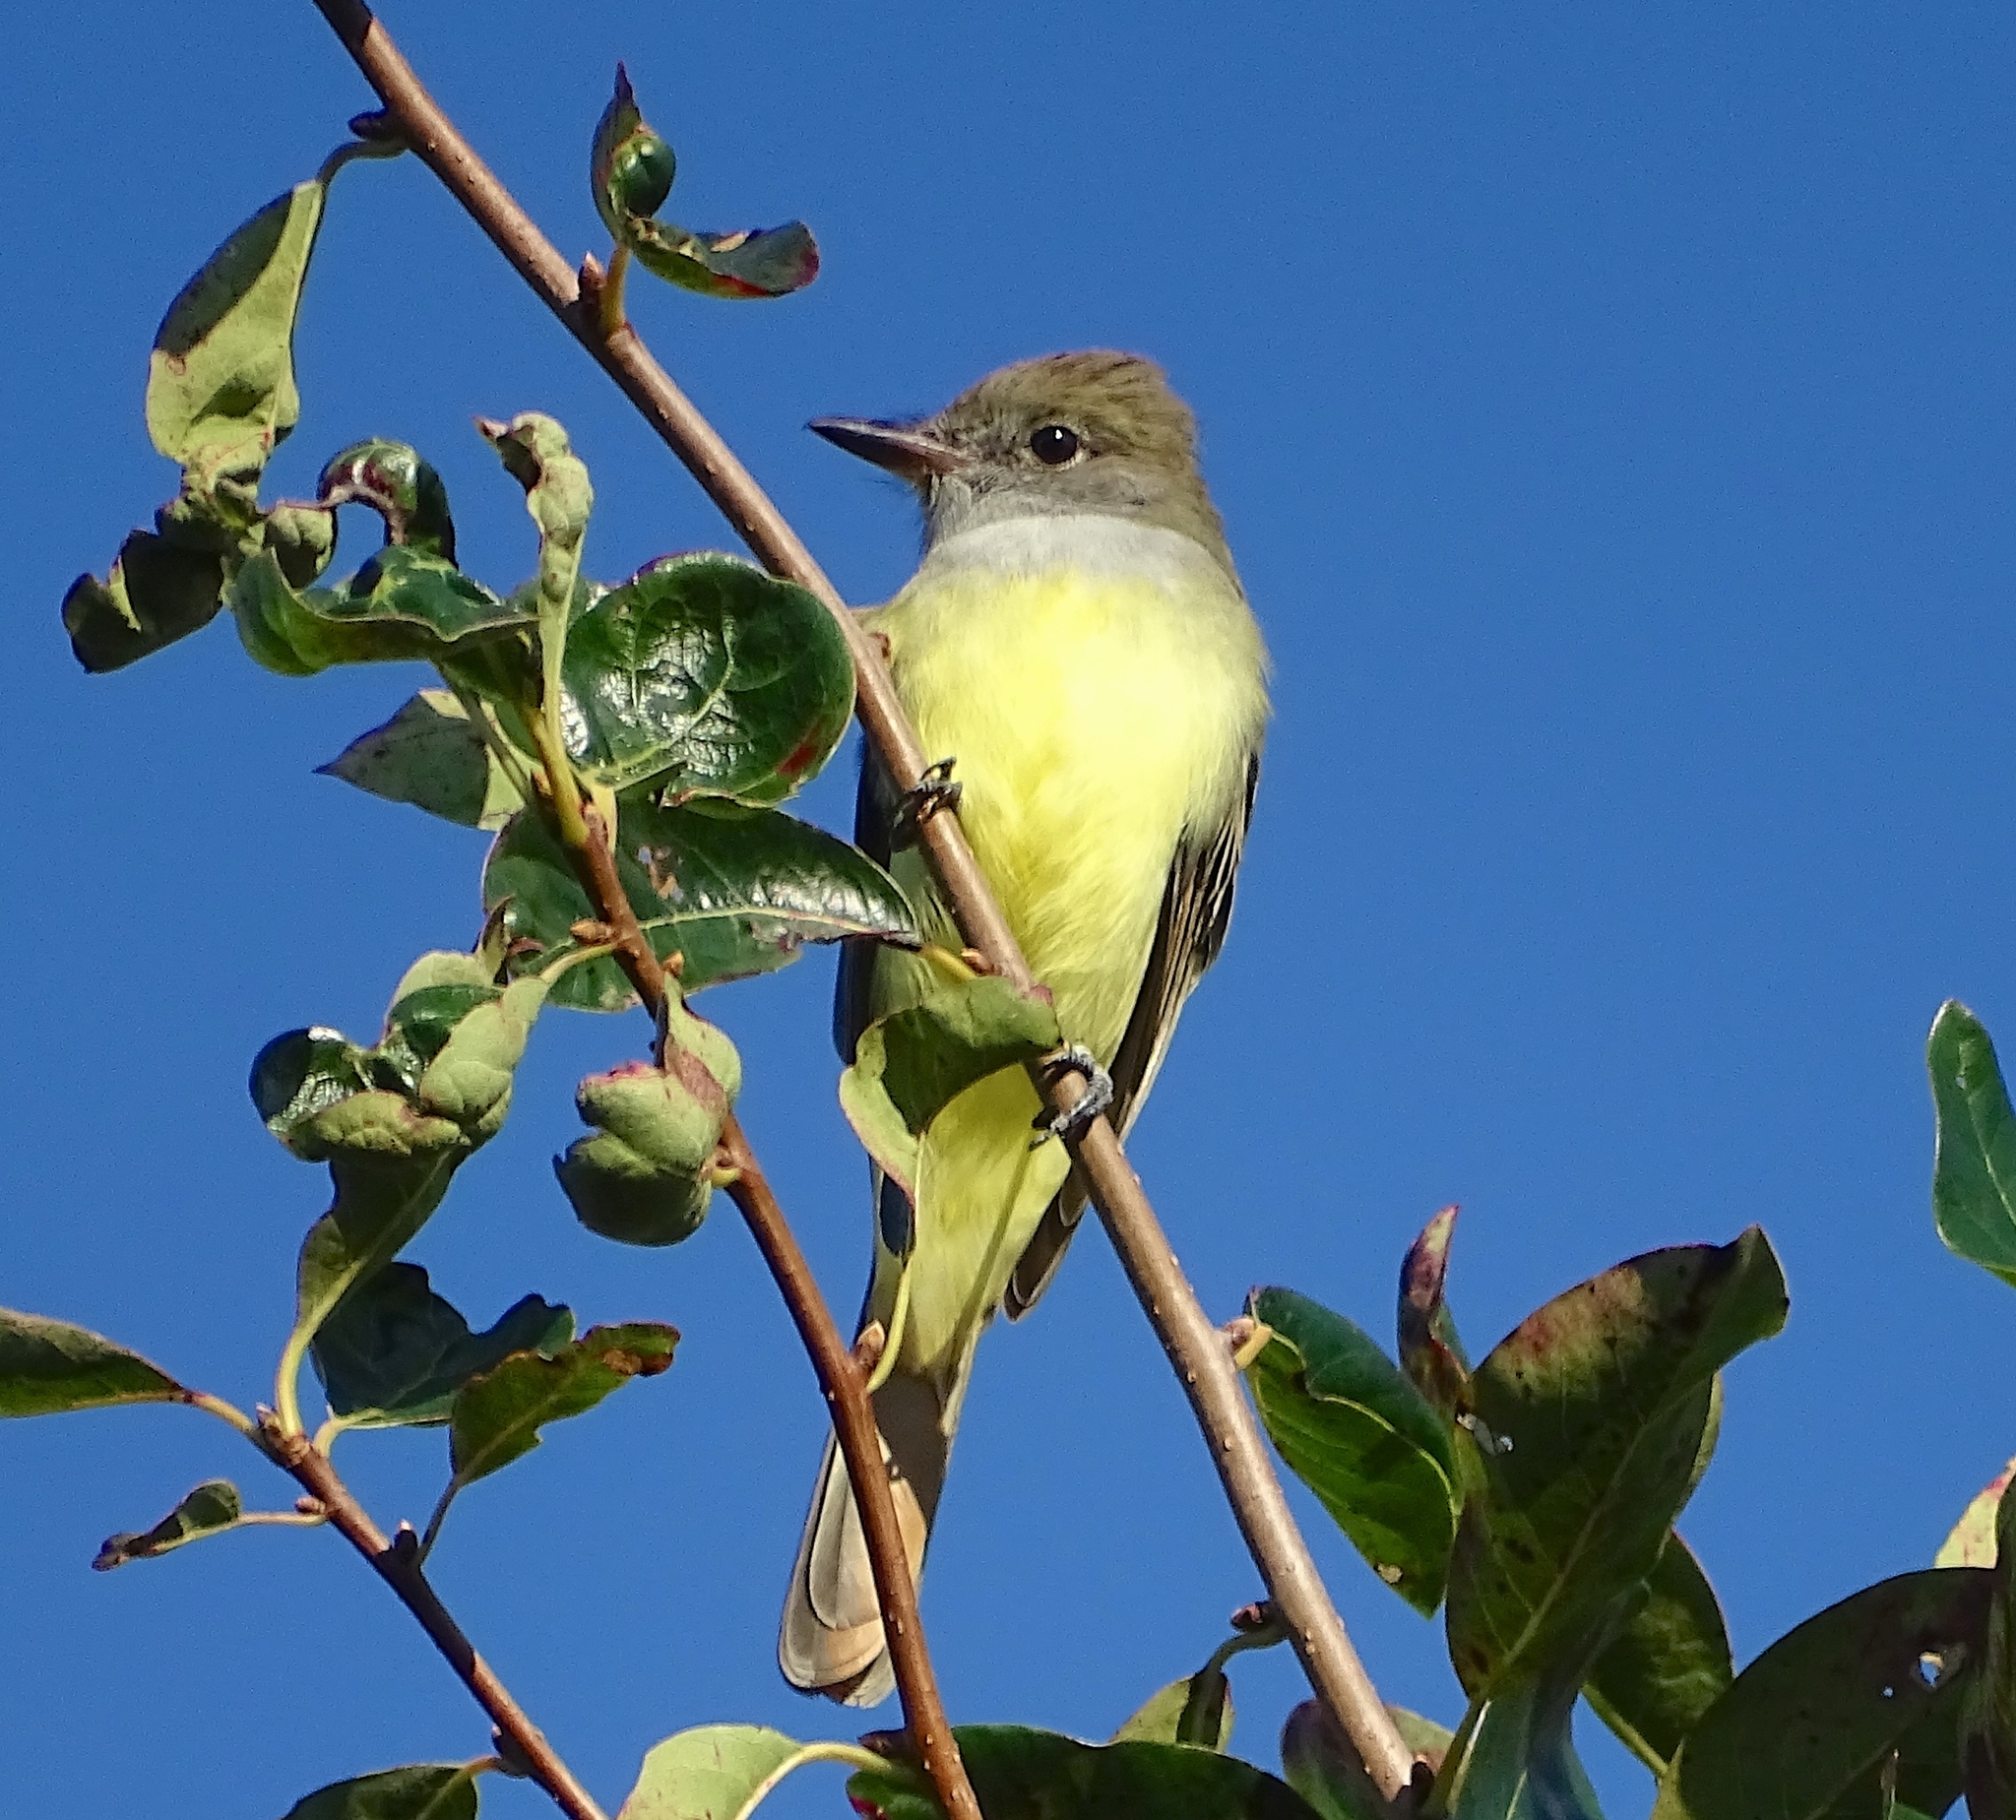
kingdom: Animalia
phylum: Chordata
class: Aves
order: Passeriformes
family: Tyrannidae
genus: Myiarchus
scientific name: Myiarchus crinitus
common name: Great crested flycatcher
